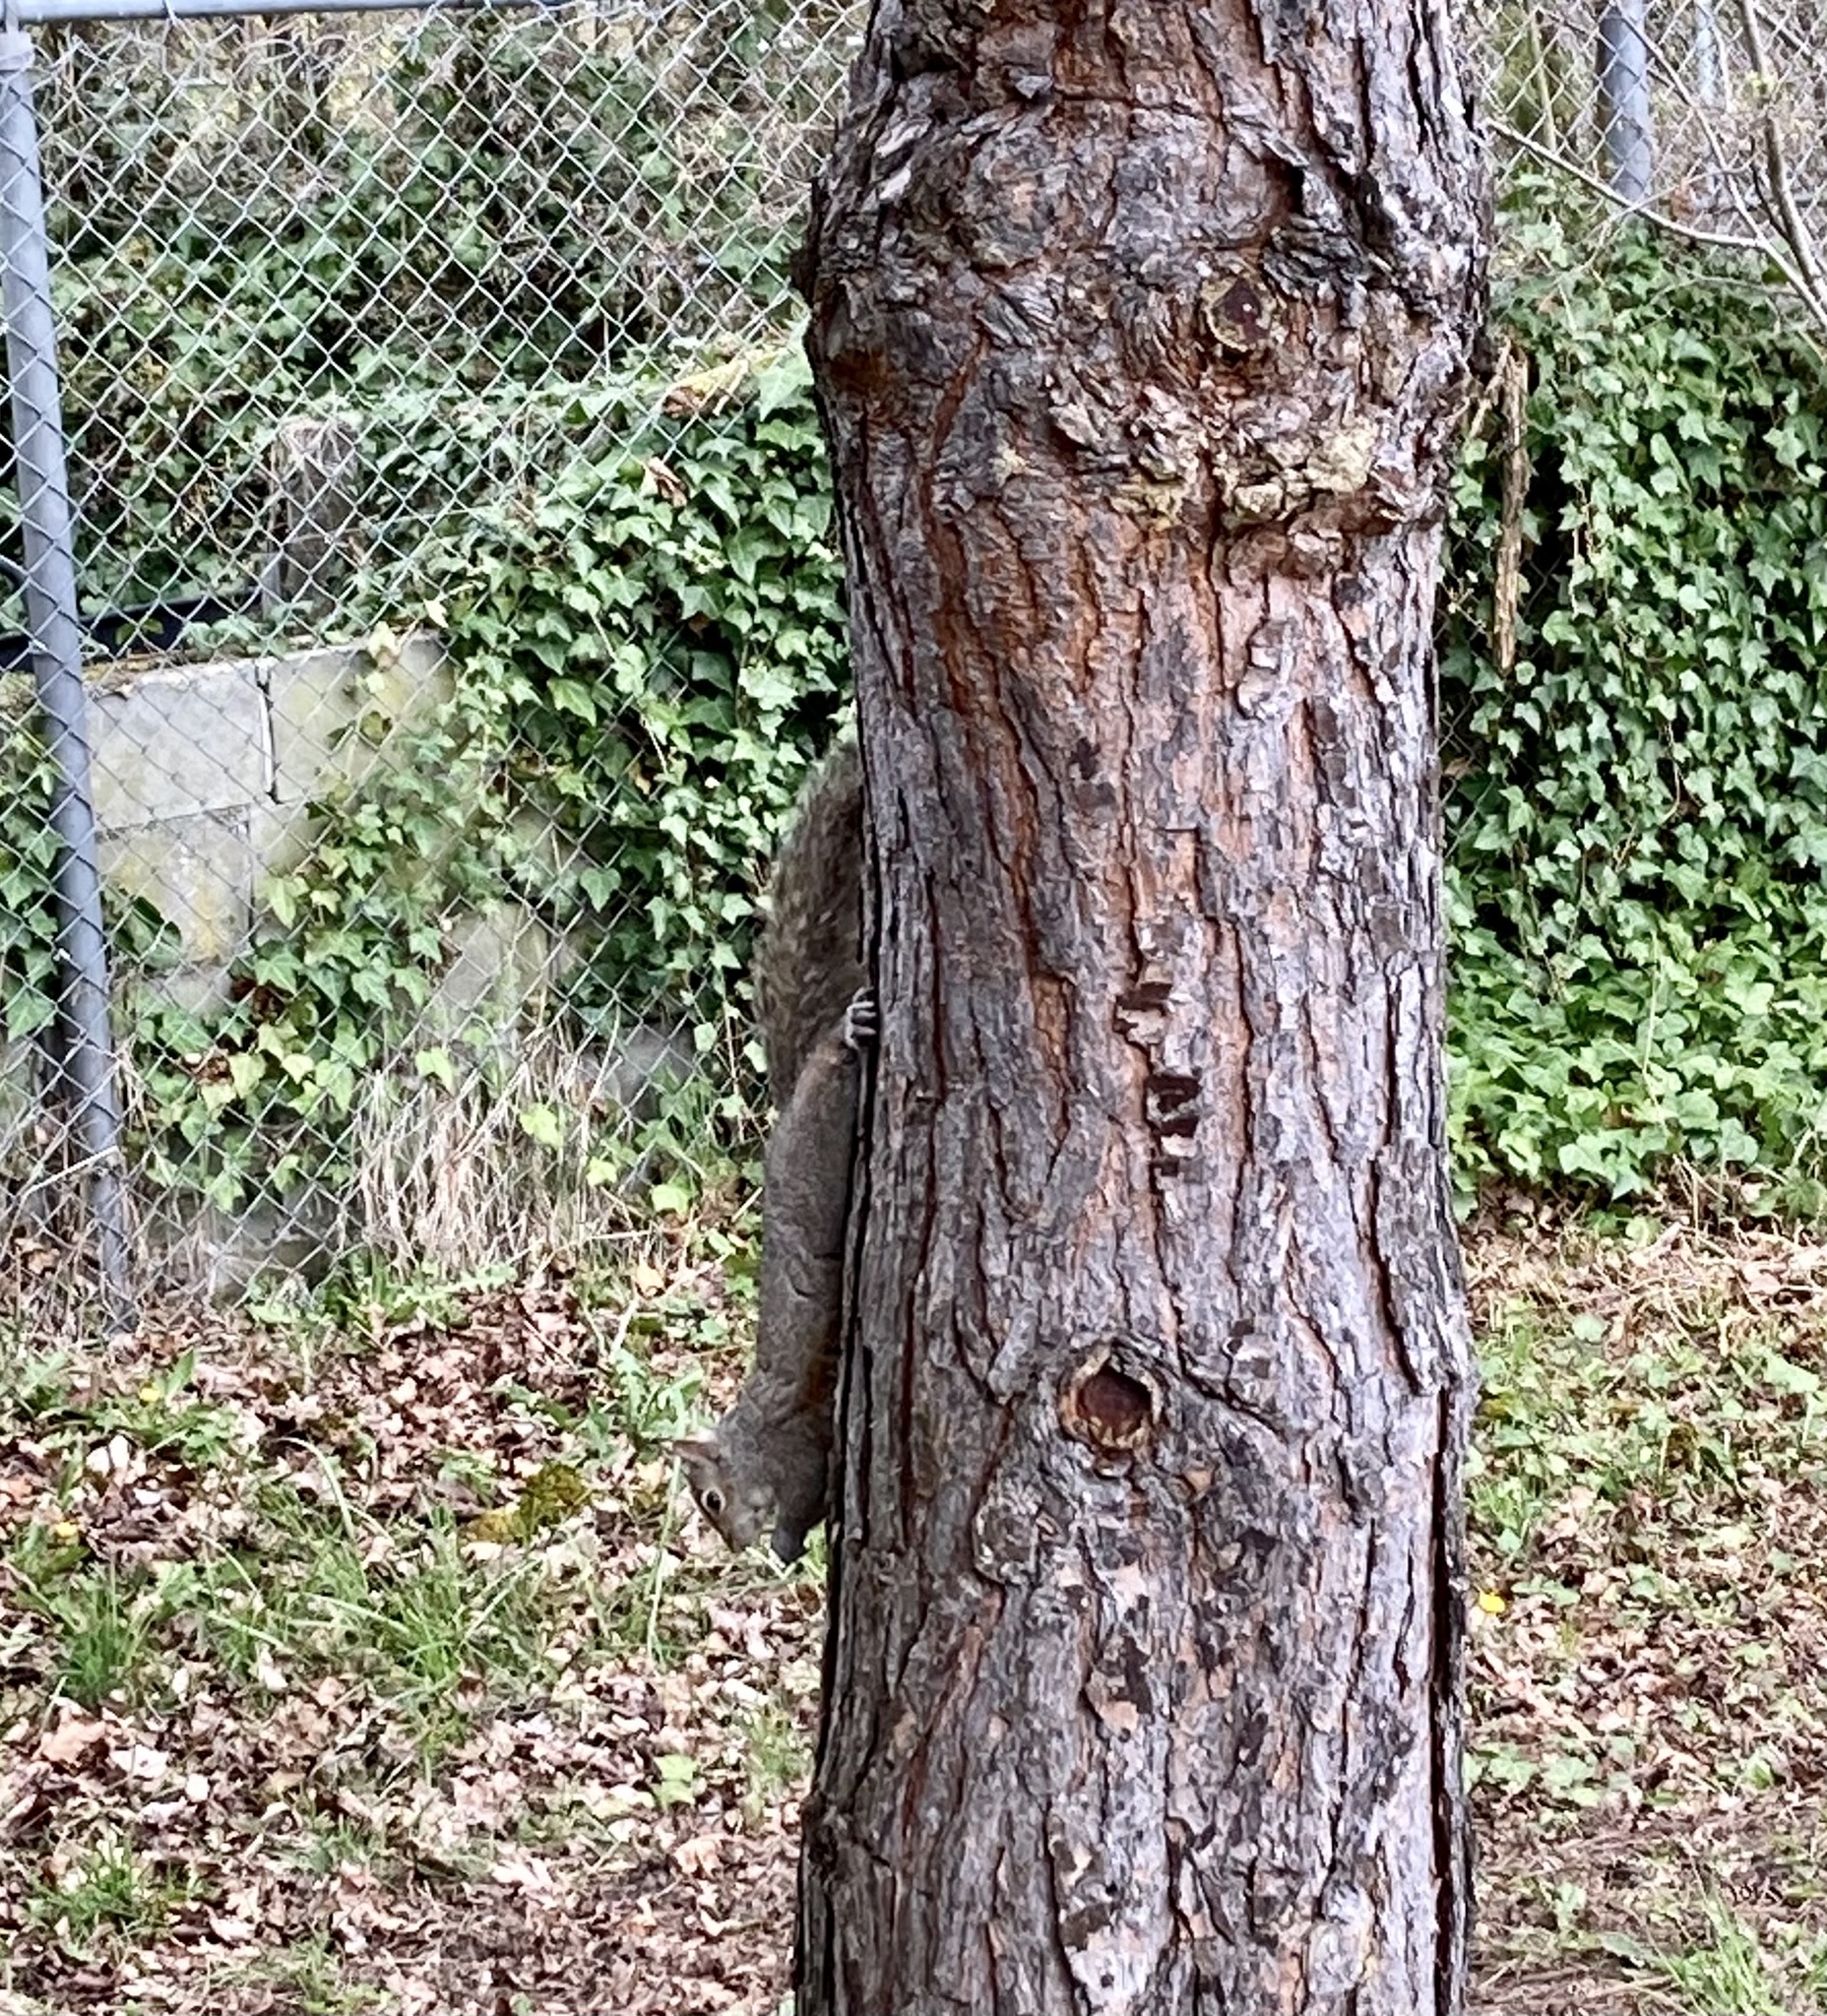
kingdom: Animalia
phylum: Chordata
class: Mammalia
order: Rodentia
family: Sciuridae
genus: Sciurus
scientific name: Sciurus carolinensis
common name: Eastern gray squirrel
